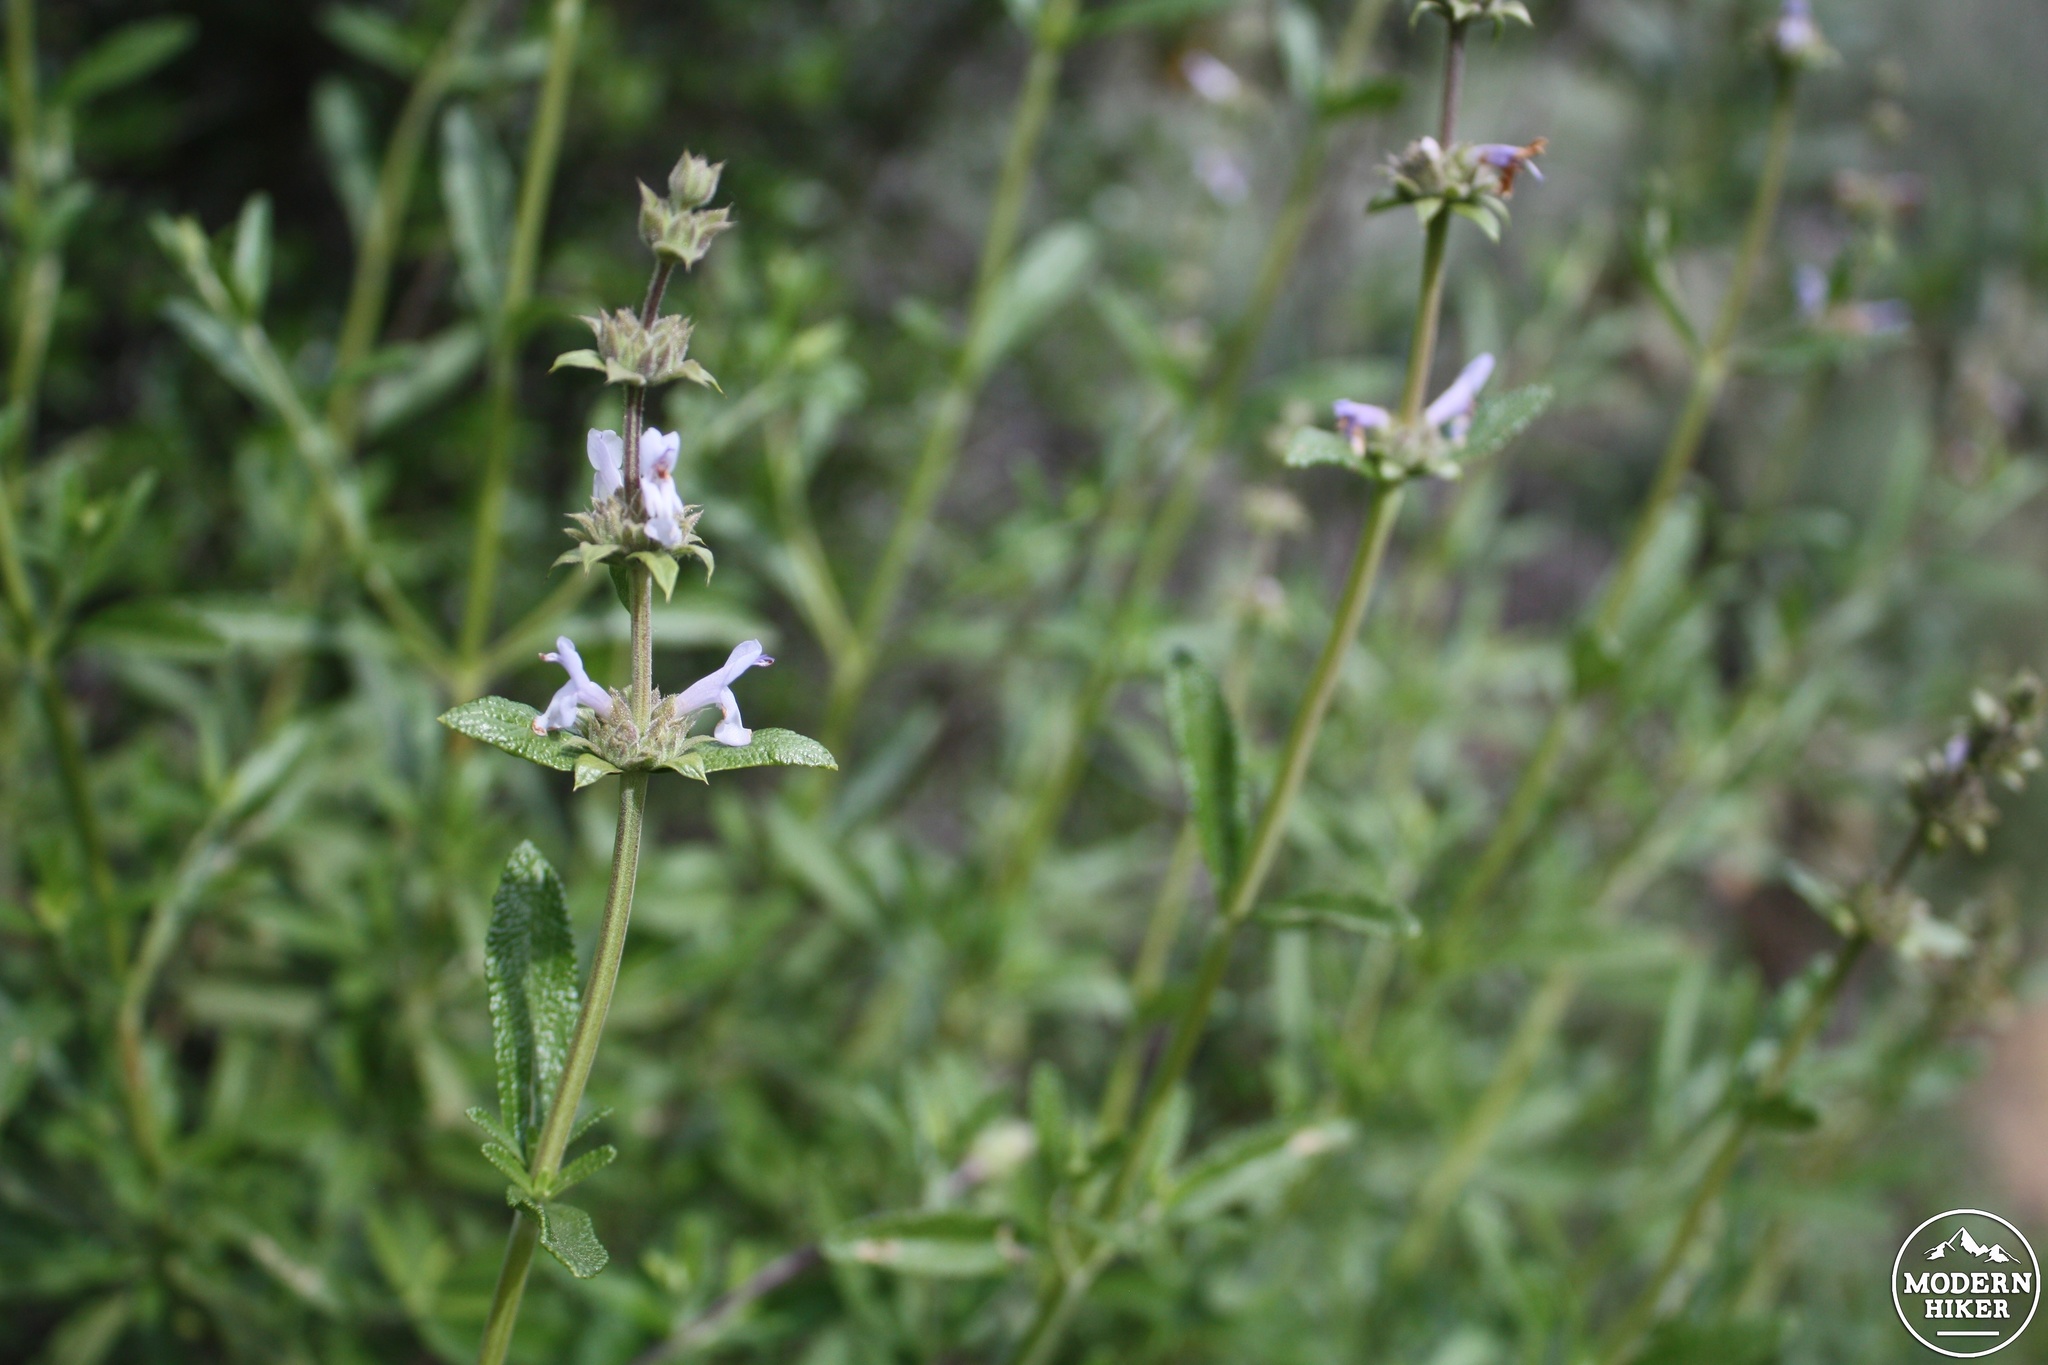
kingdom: Plantae
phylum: Tracheophyta
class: Magnoliopsida
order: Lamiales
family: Lamiaceae
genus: Salvia
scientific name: Salvia mellifera
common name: Black sage
